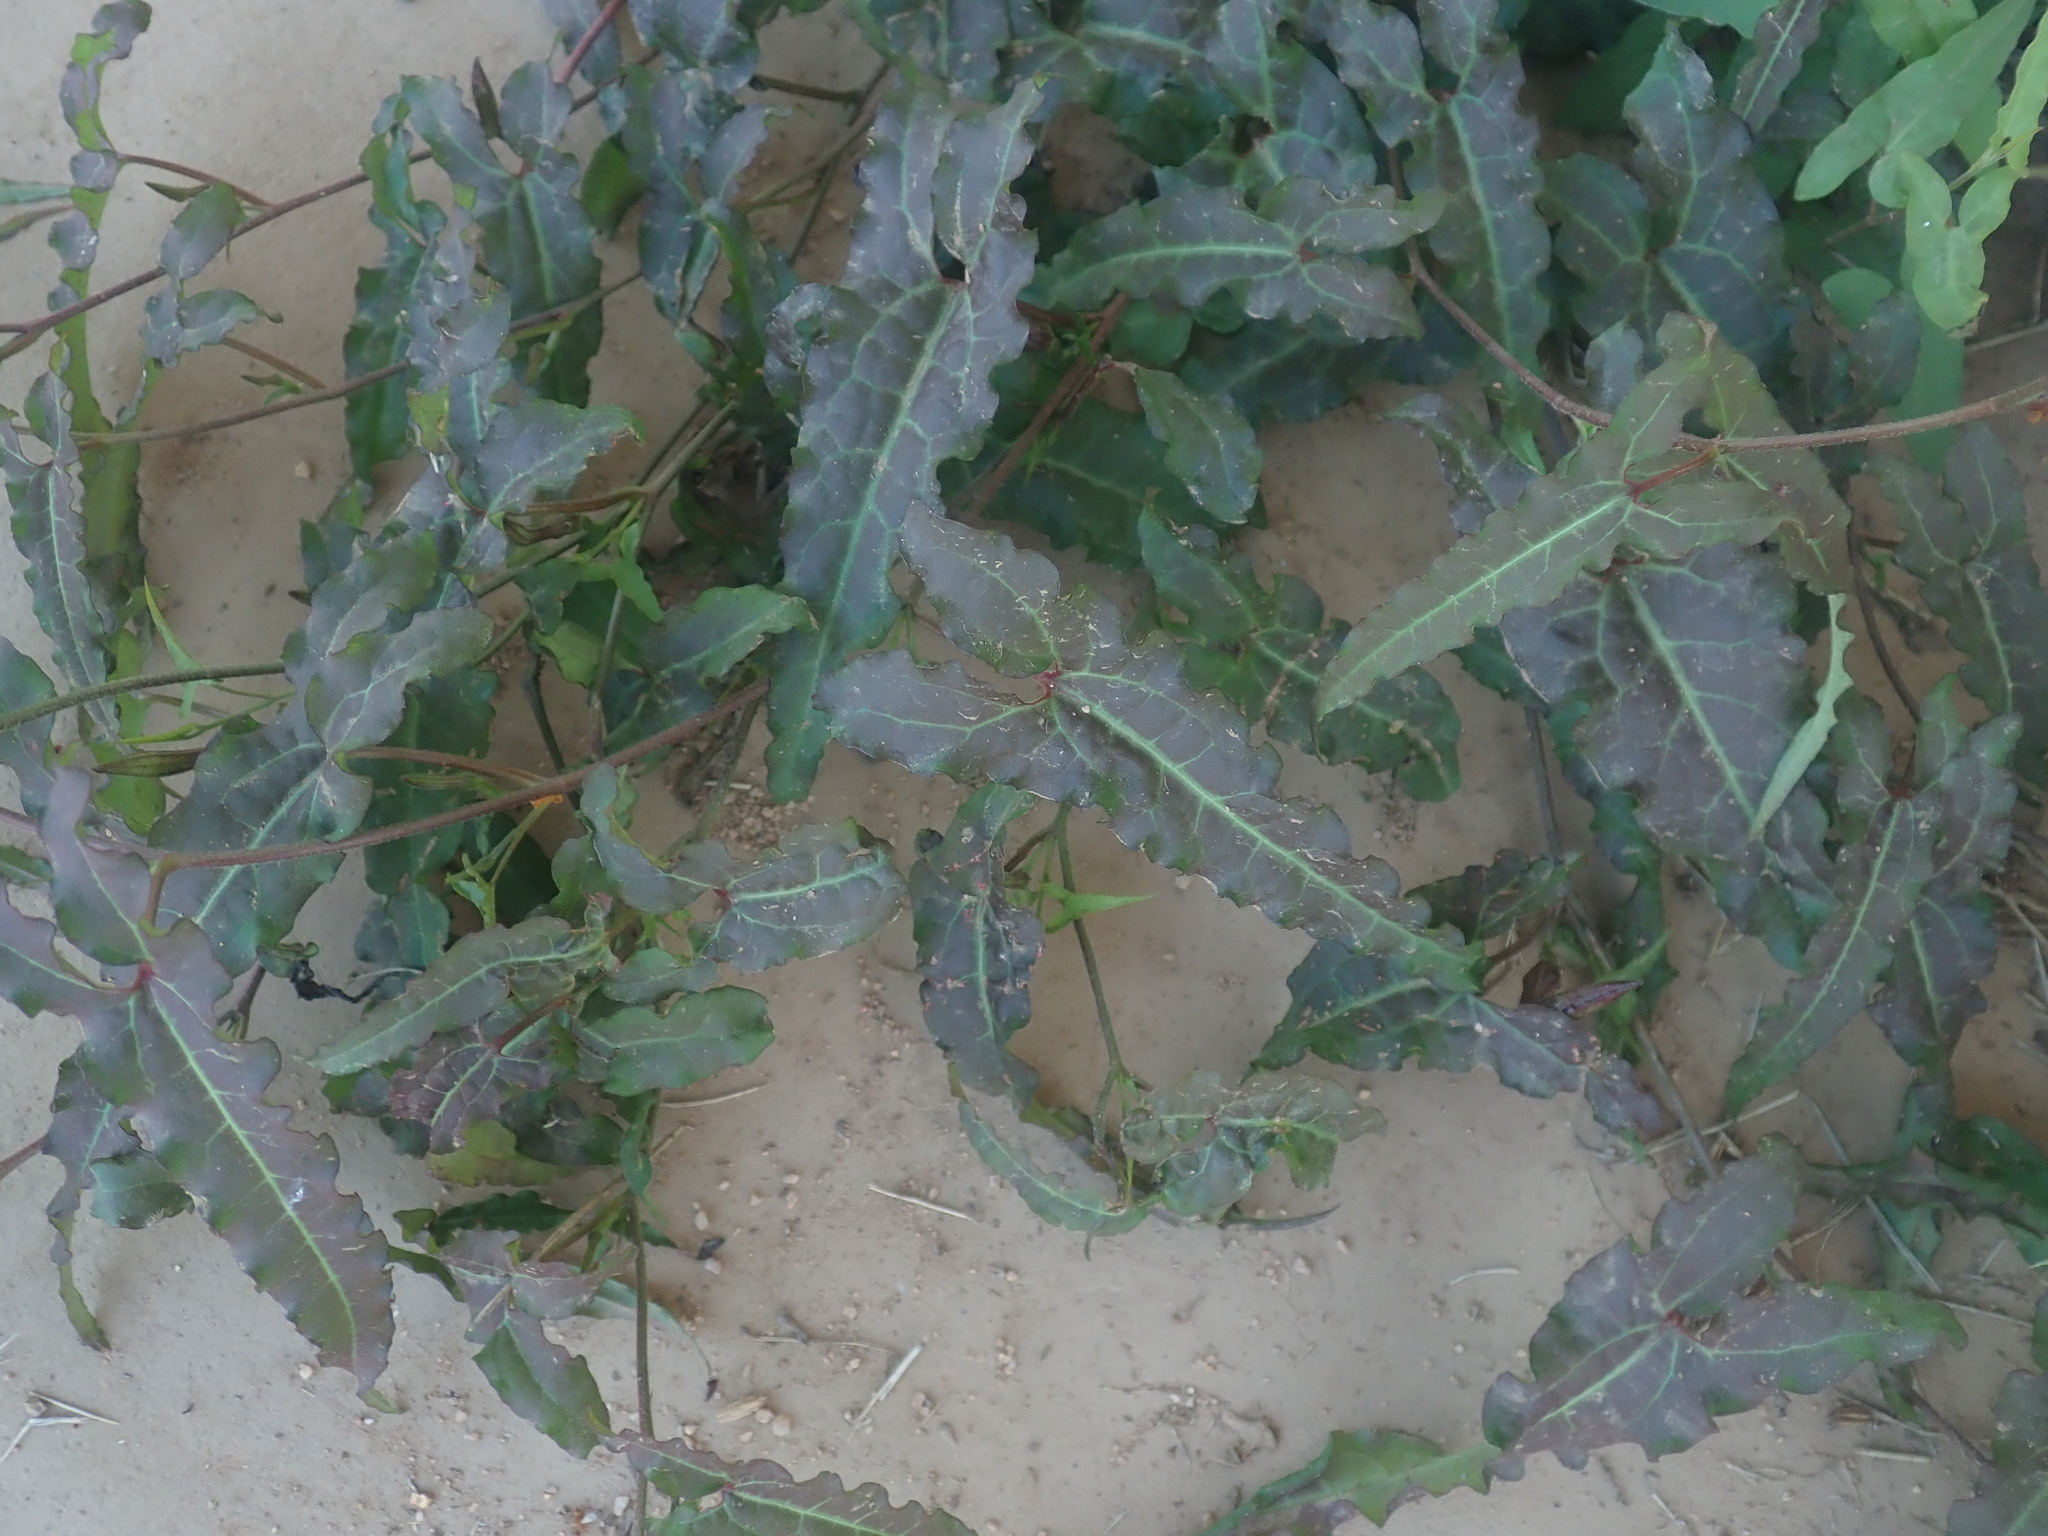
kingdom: Plantae
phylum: Tracheophyta
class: Magnoliopsida
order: Piperales
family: Aristolochiaceae
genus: Aristolochia
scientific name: Aristolochia watsonii
